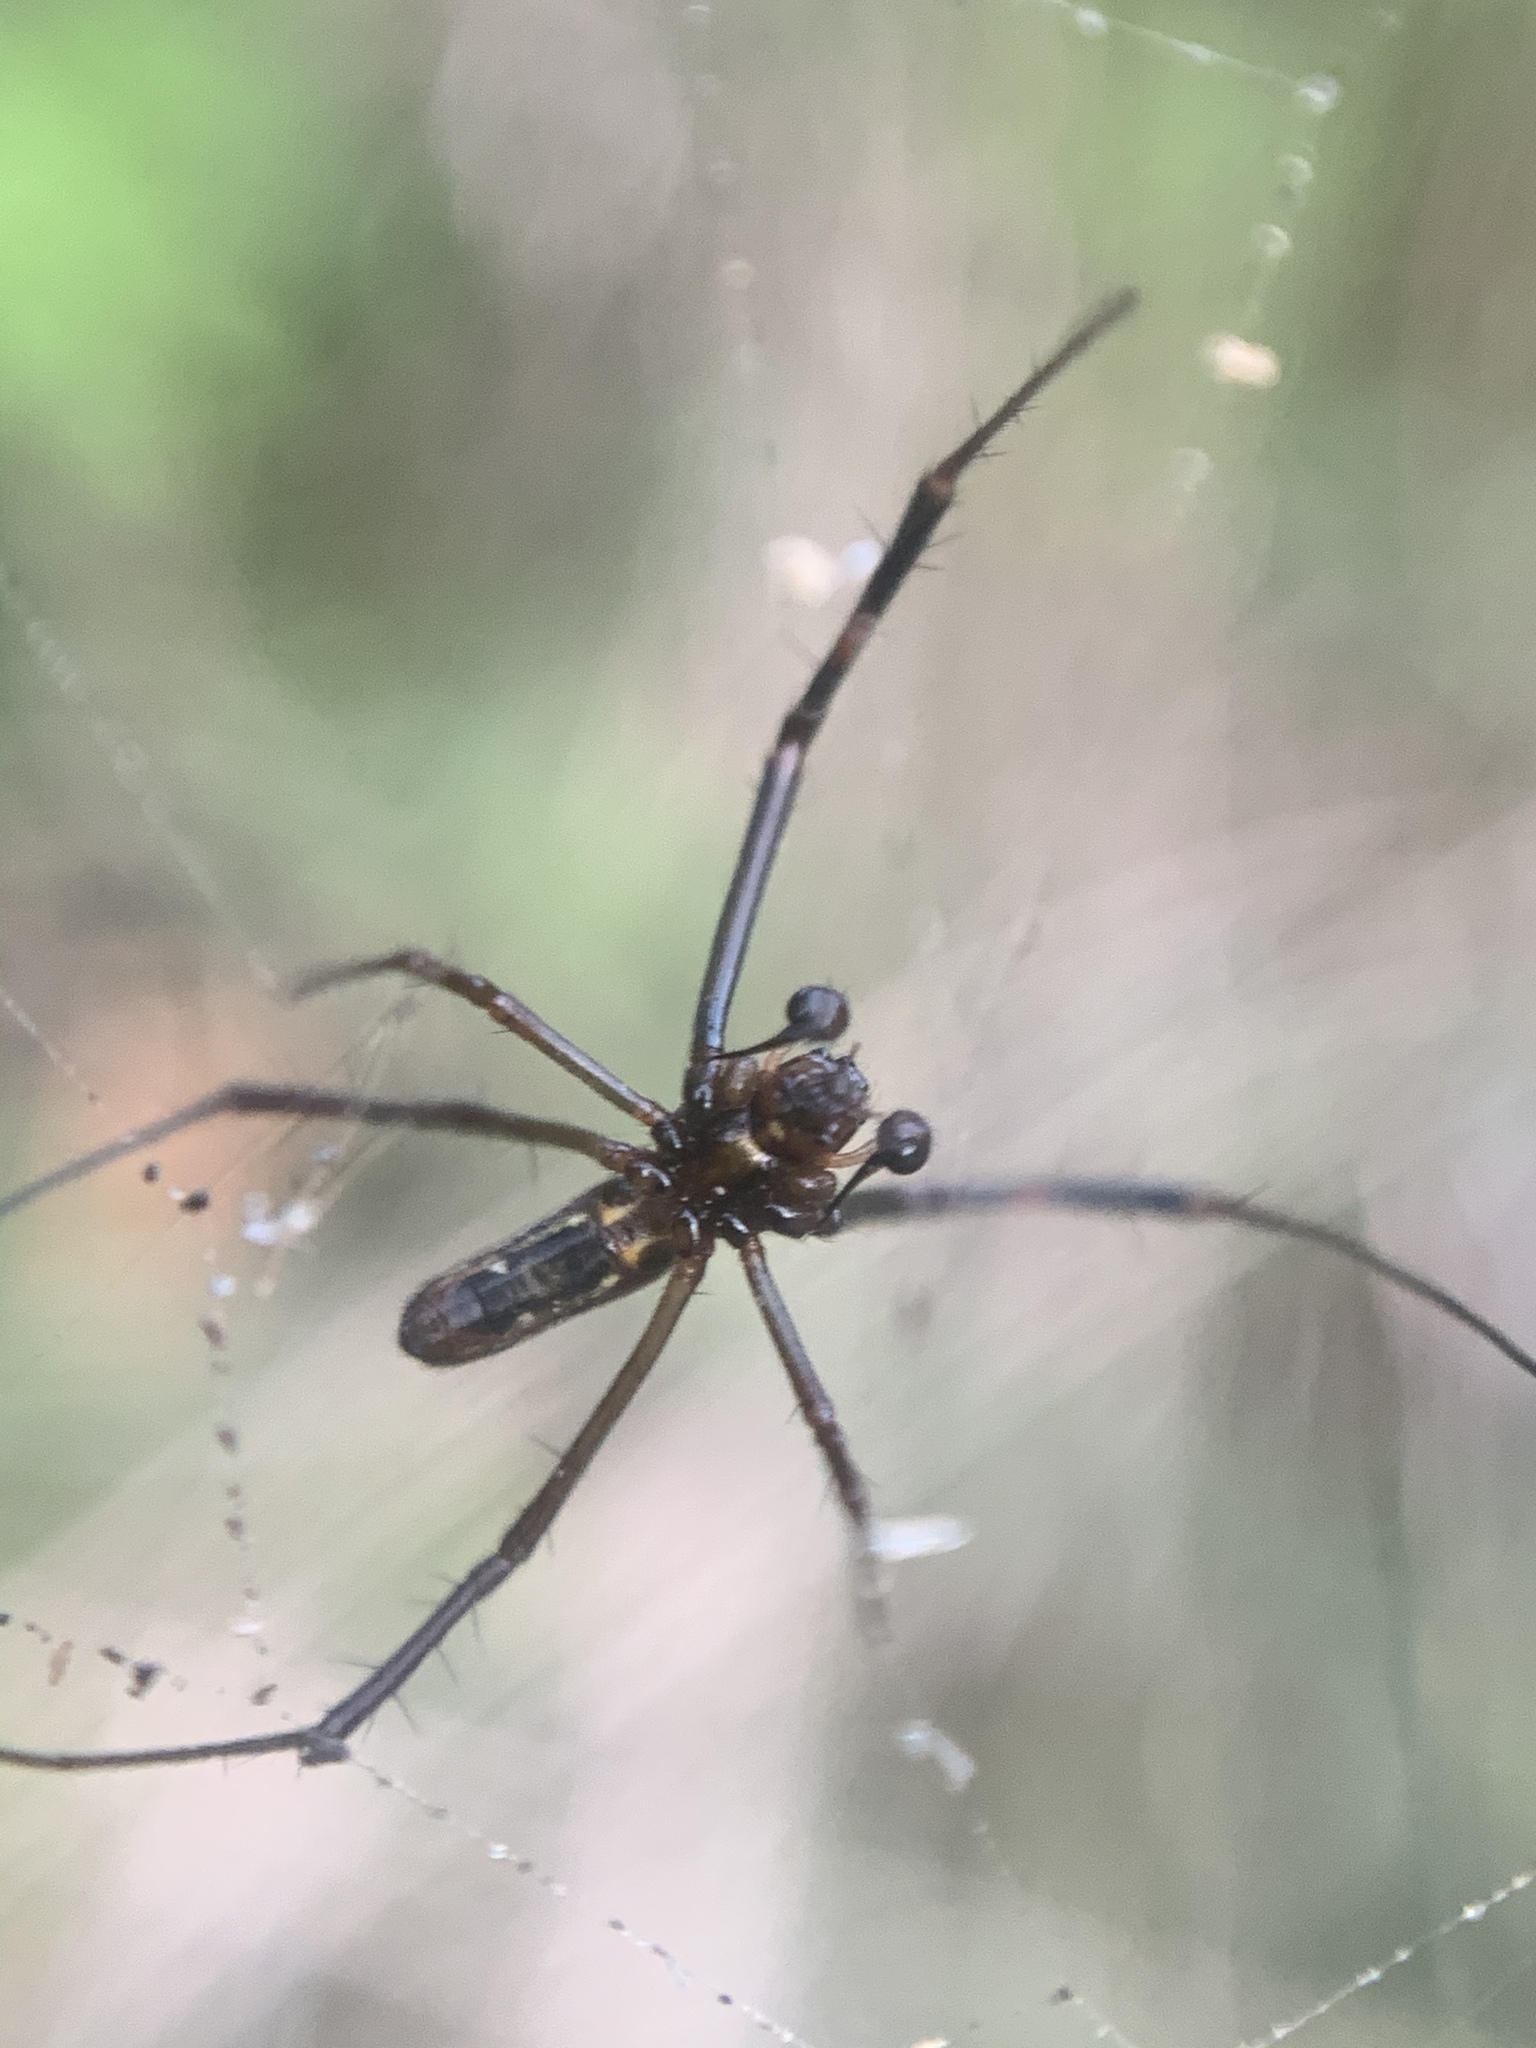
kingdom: Animalia
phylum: Arthropoda
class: Arachnida
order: Araneae
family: Araneidae
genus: Trichonephila
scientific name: Trichonephila clavipes
